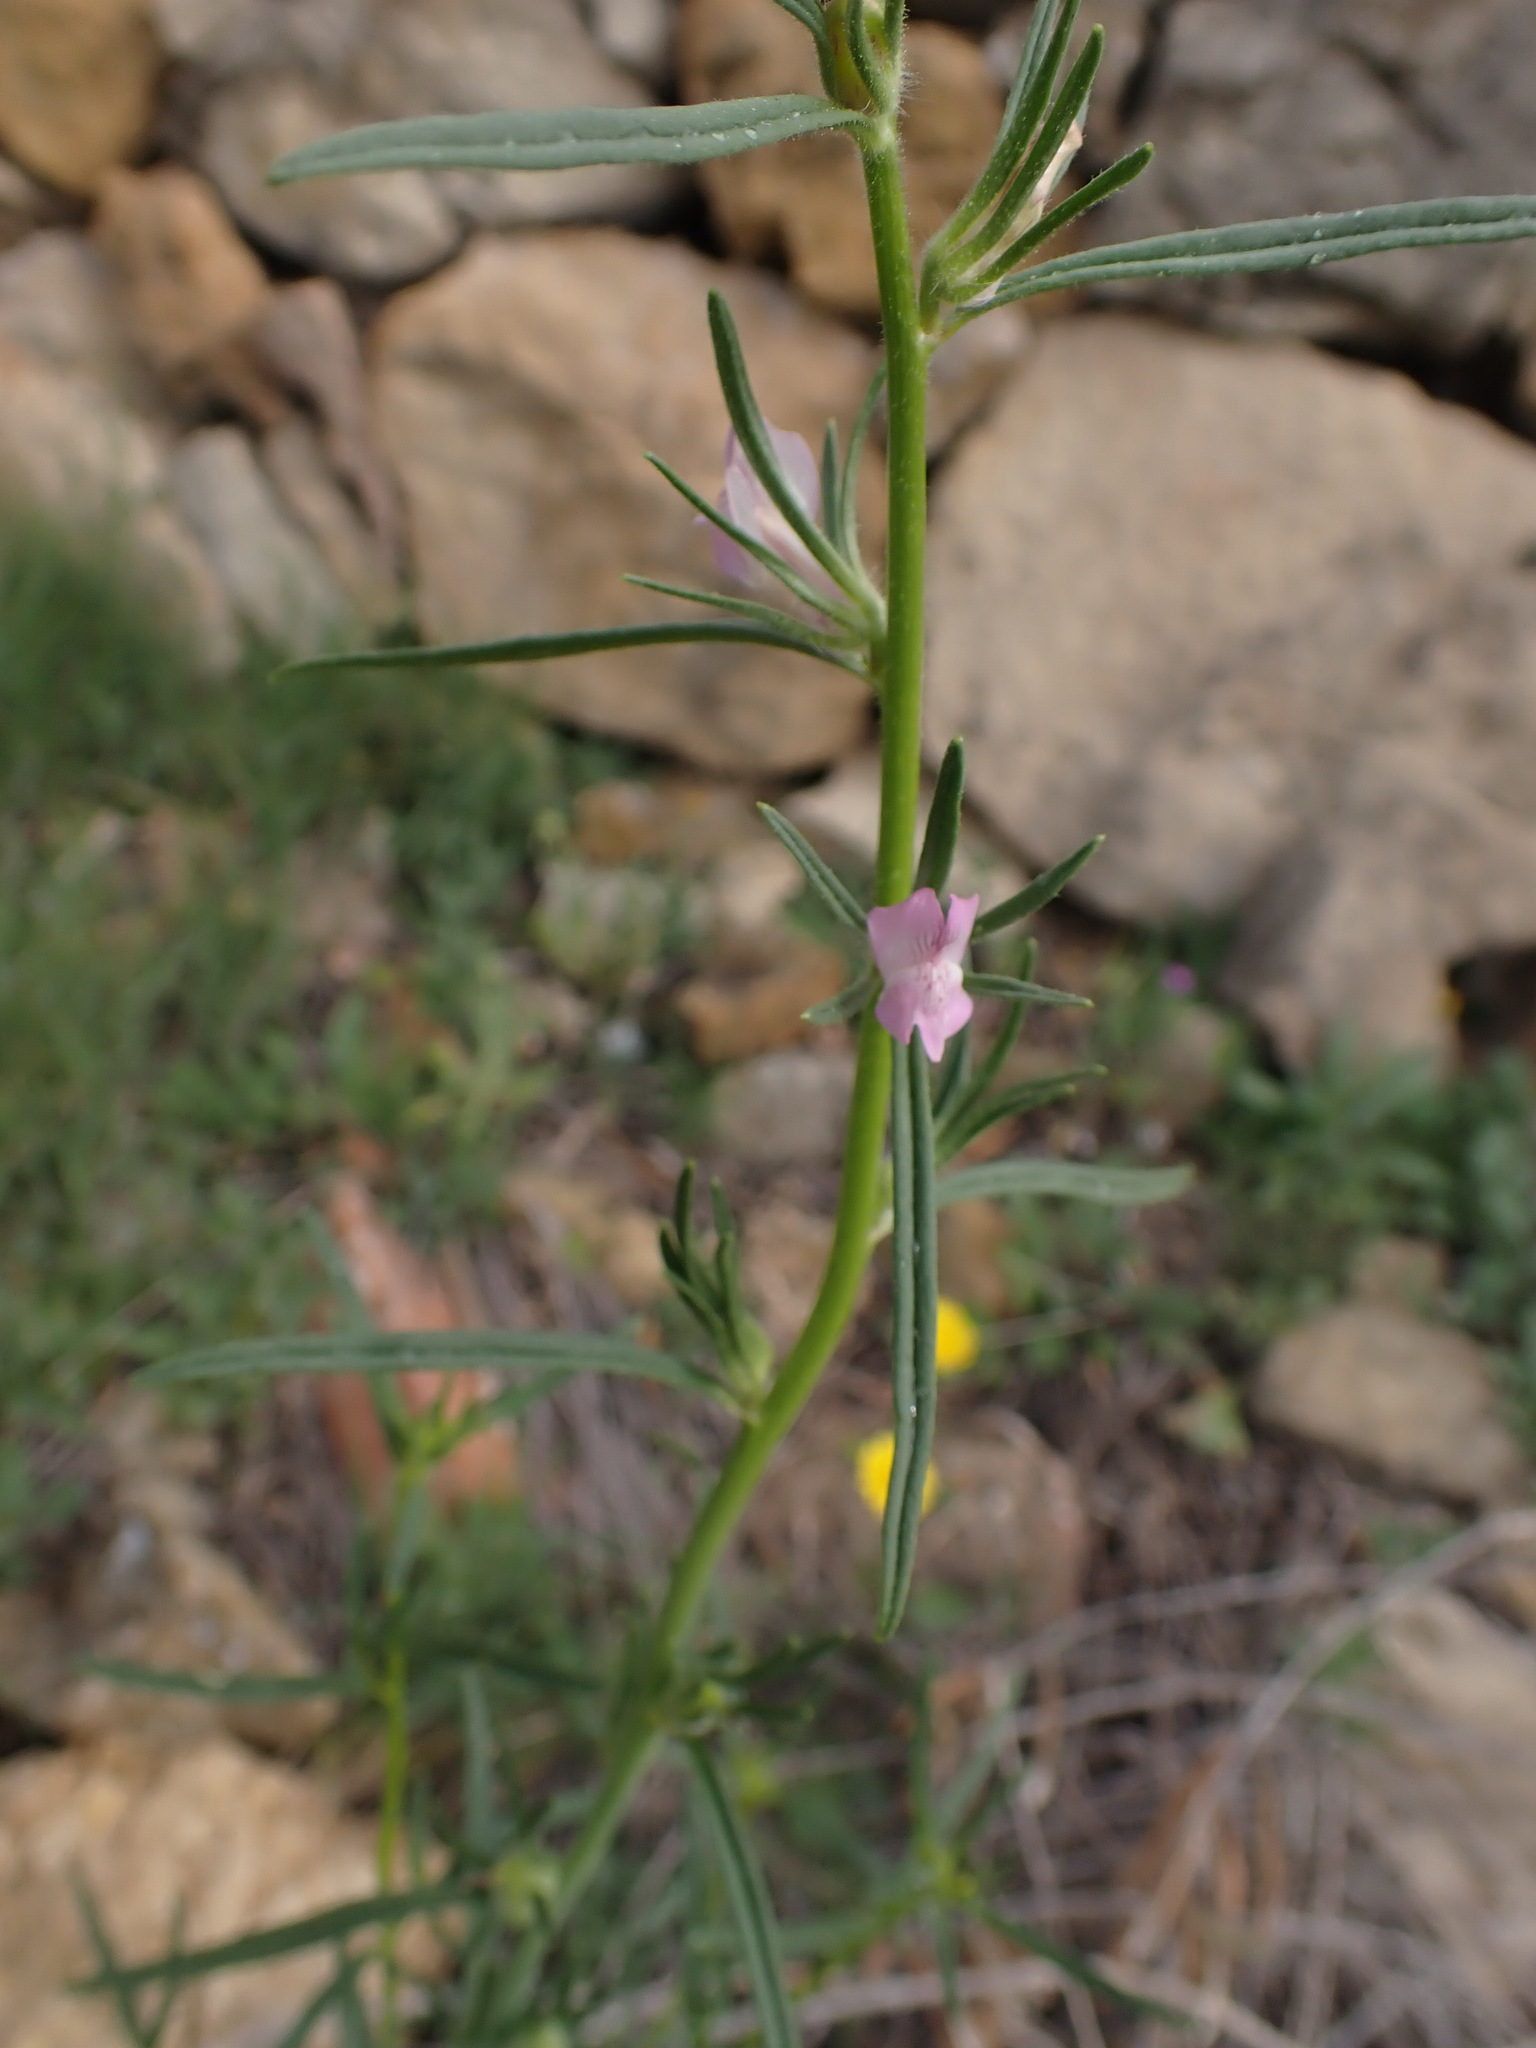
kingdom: Plantae
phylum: Tracheophyta
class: Magnoliopsida
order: Lamiales
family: Plantaginaceae
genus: Misopates
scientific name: Misopates orontium
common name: Weasel's-snout
